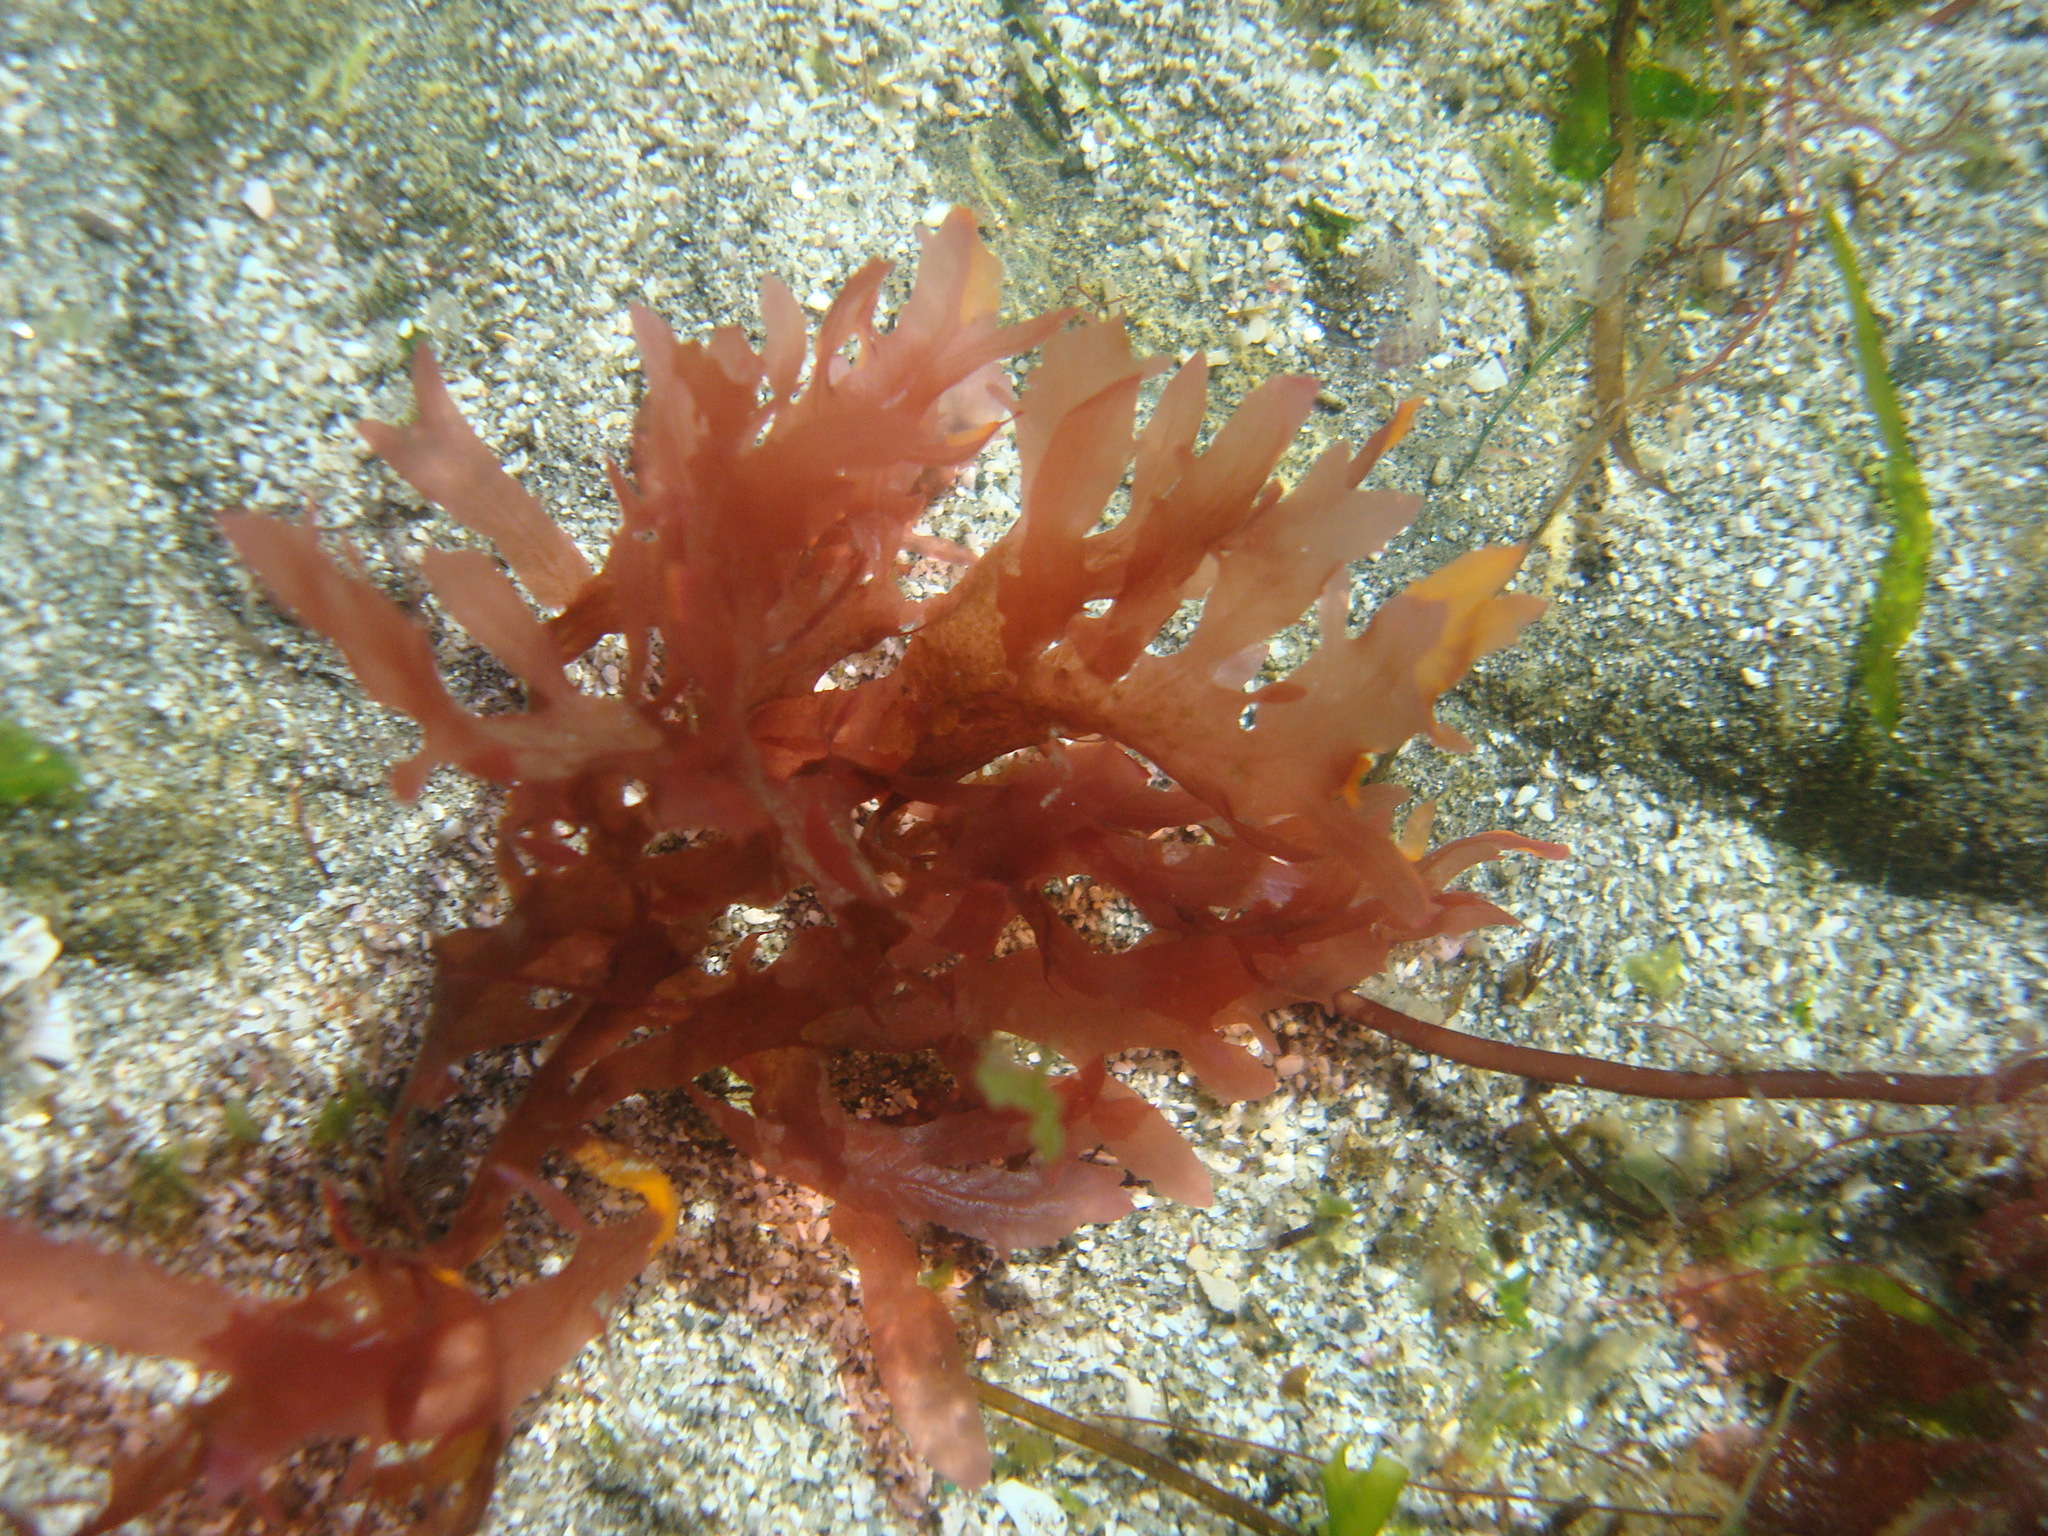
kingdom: Plantae
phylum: Rhodophyta
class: Florideophyceae
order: Ceramiales
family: Delesseriaceae
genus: Branchioglossum
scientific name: Branchioglossum bipinnatifidum
